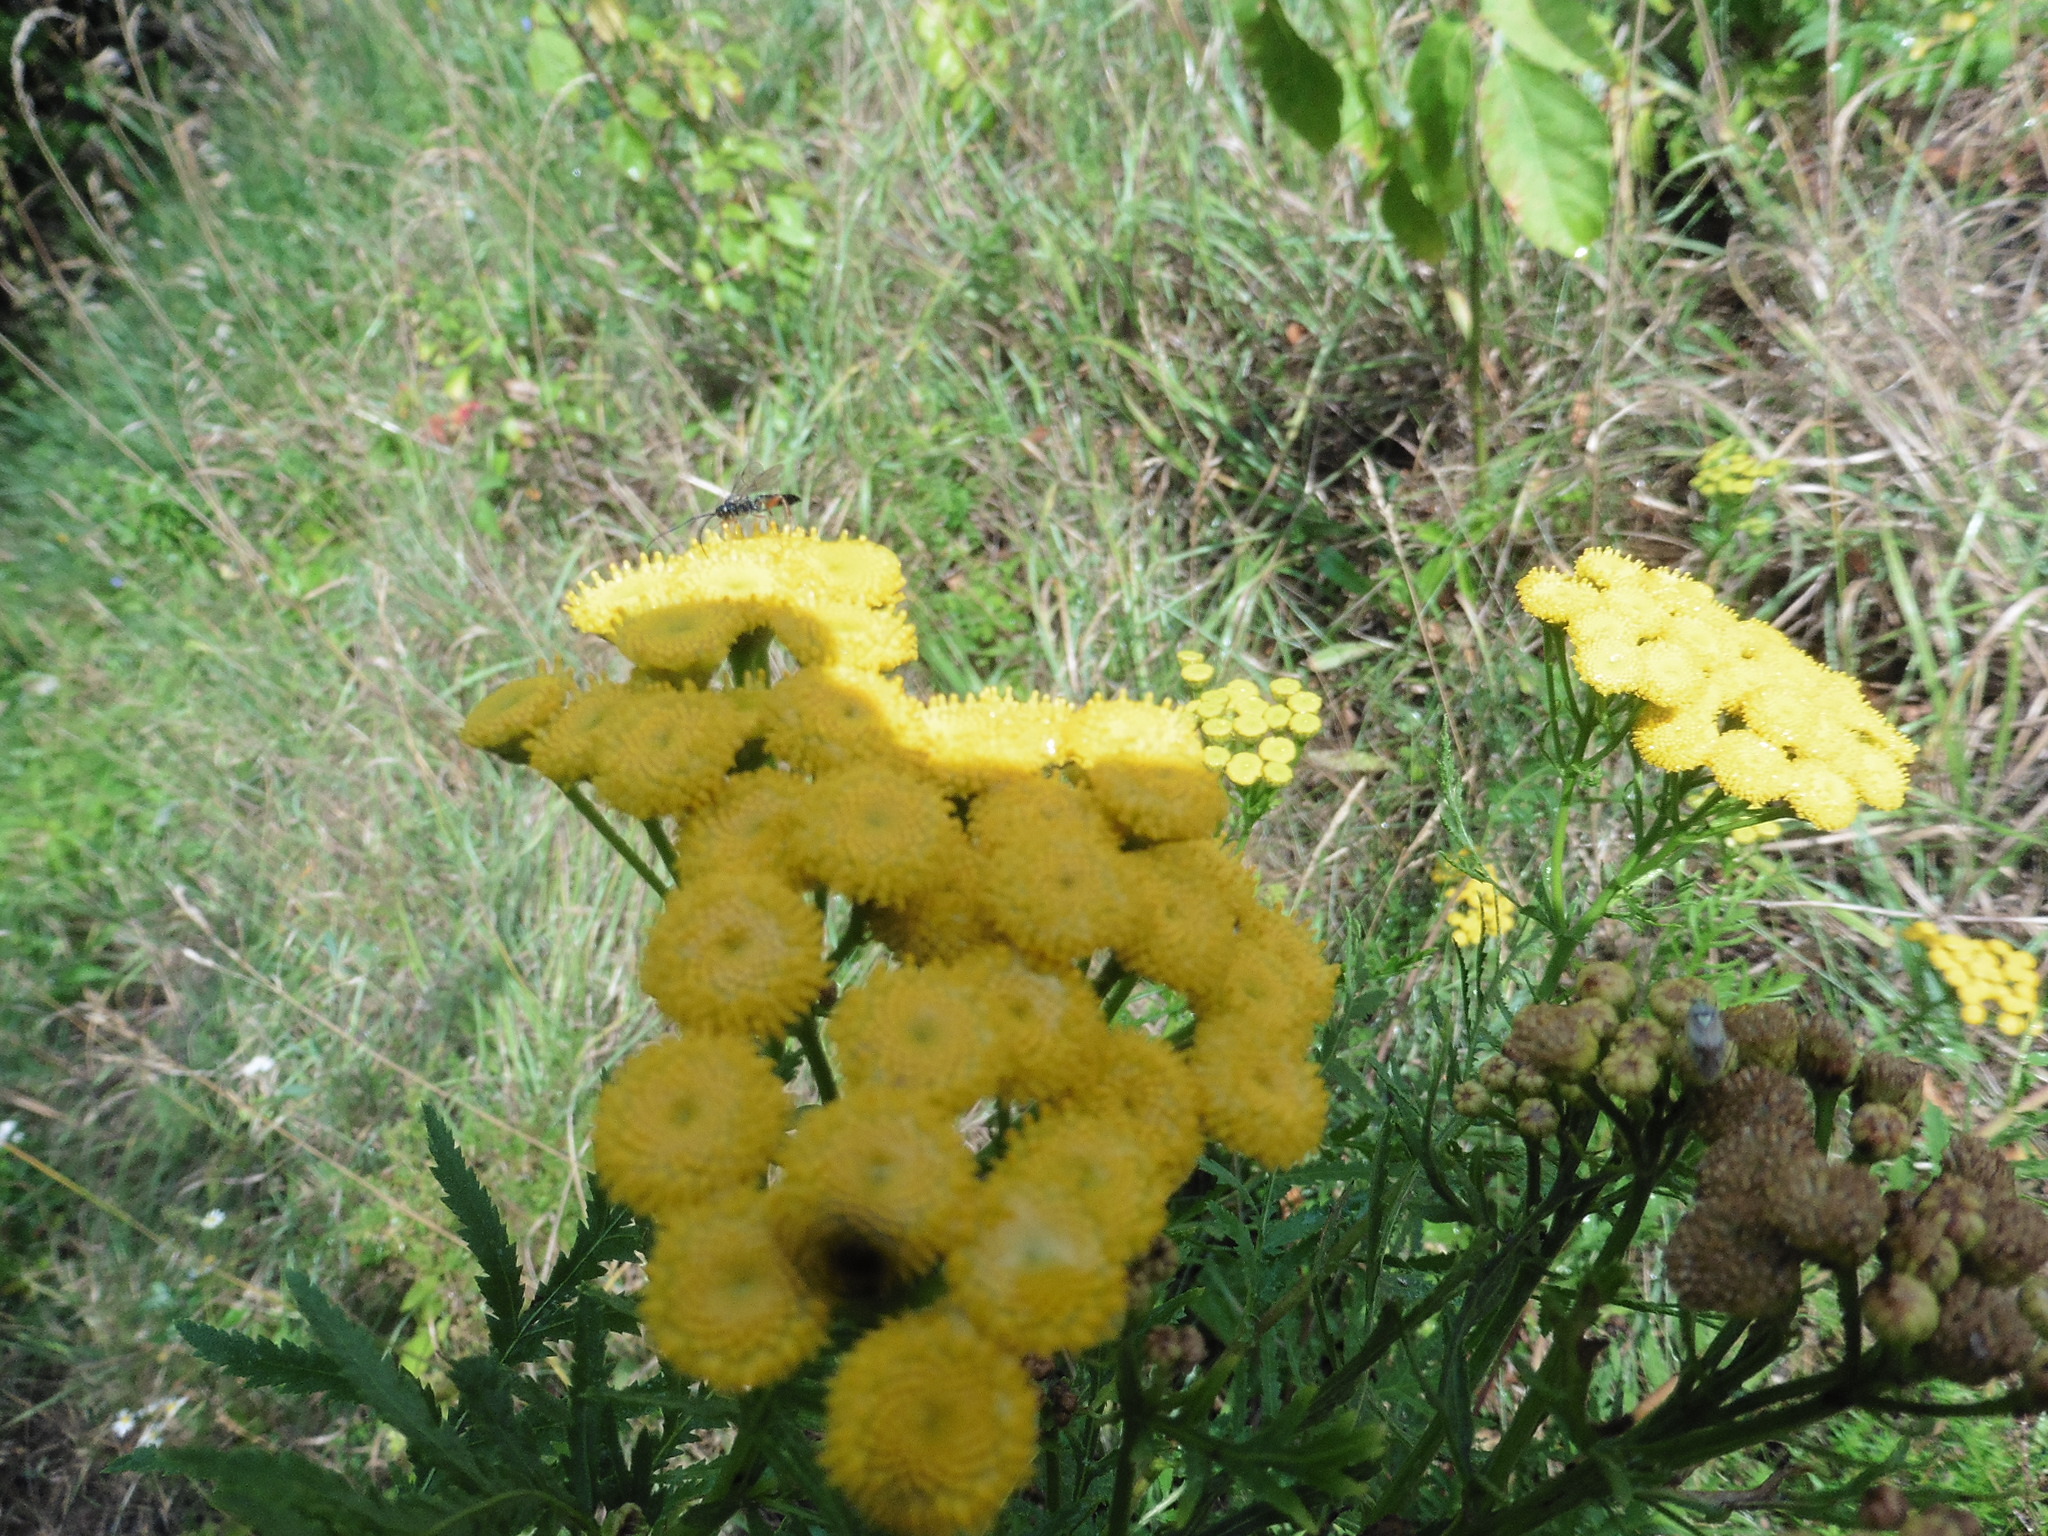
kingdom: Plantae
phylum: Tracheophyta
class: Magnoliopsida
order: Asterales
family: Asteraceae
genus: Tanacetum
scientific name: Tanacetum vulgare
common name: Common tansy
